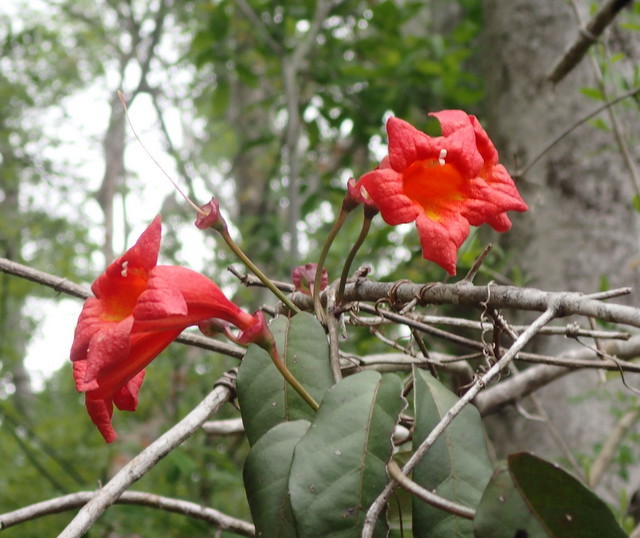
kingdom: Plantae
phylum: Tracheophyta
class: Magnoliopsida
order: Lamiales
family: Bignoniaceae
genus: Bignonia
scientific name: Bignonia capreolata
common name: Crossvine
